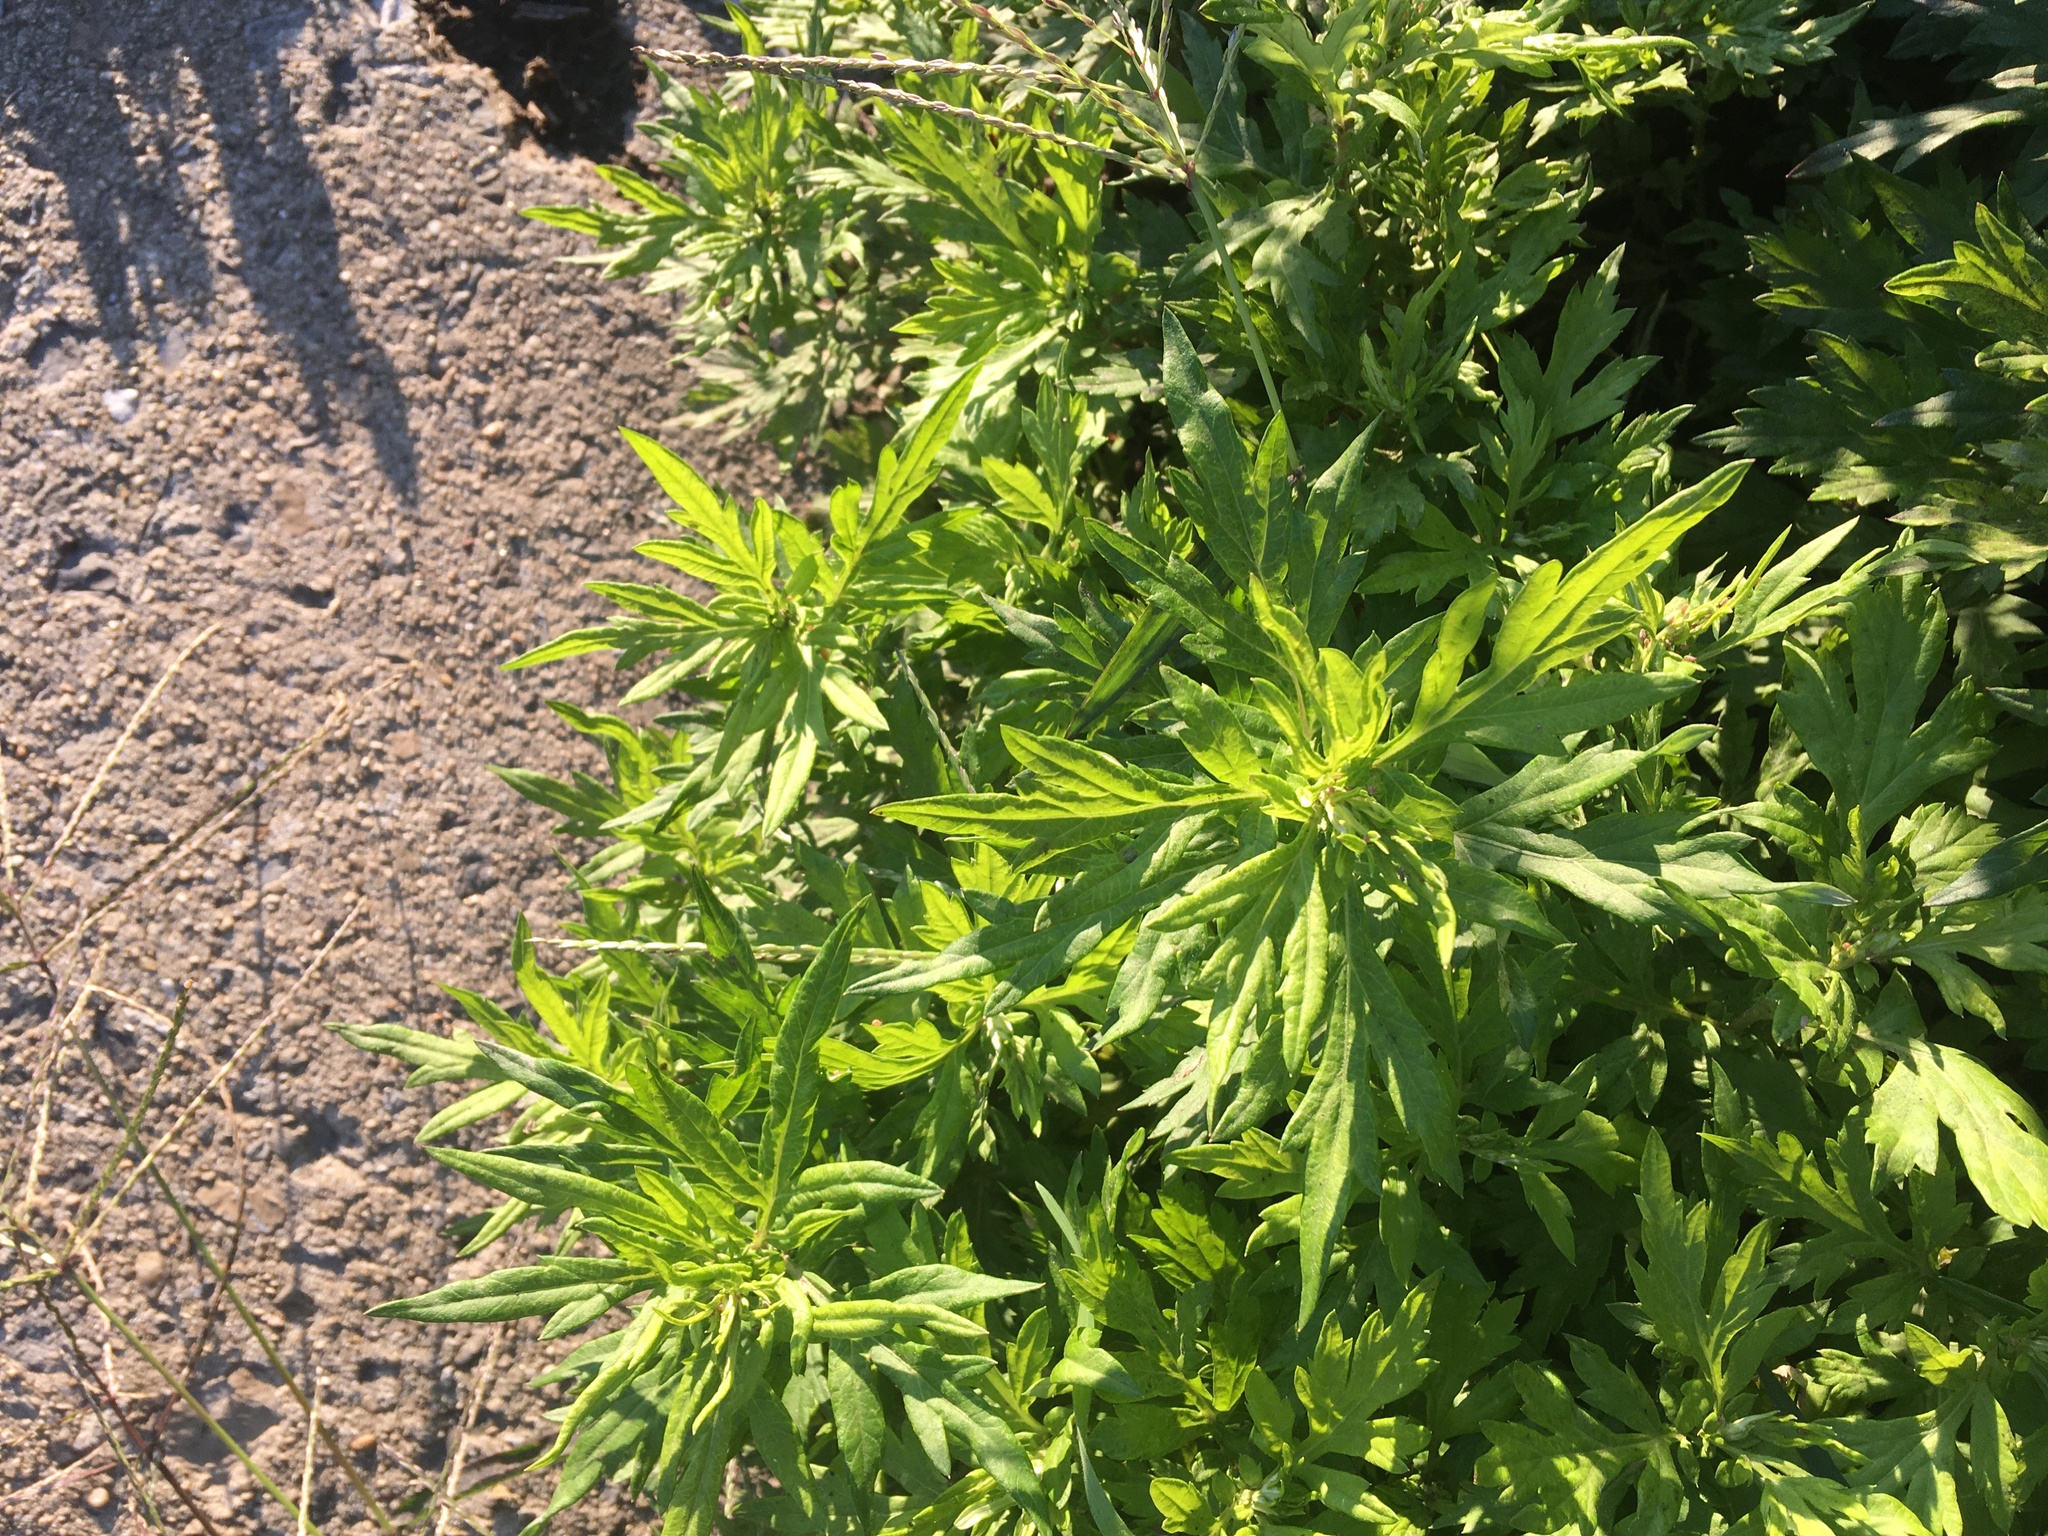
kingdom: Plantae
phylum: Tracheophyta
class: Magnoliopsida
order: Asterales
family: Asteraceae
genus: Artemisia
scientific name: Artemisia vulgaris
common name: Mugwort
